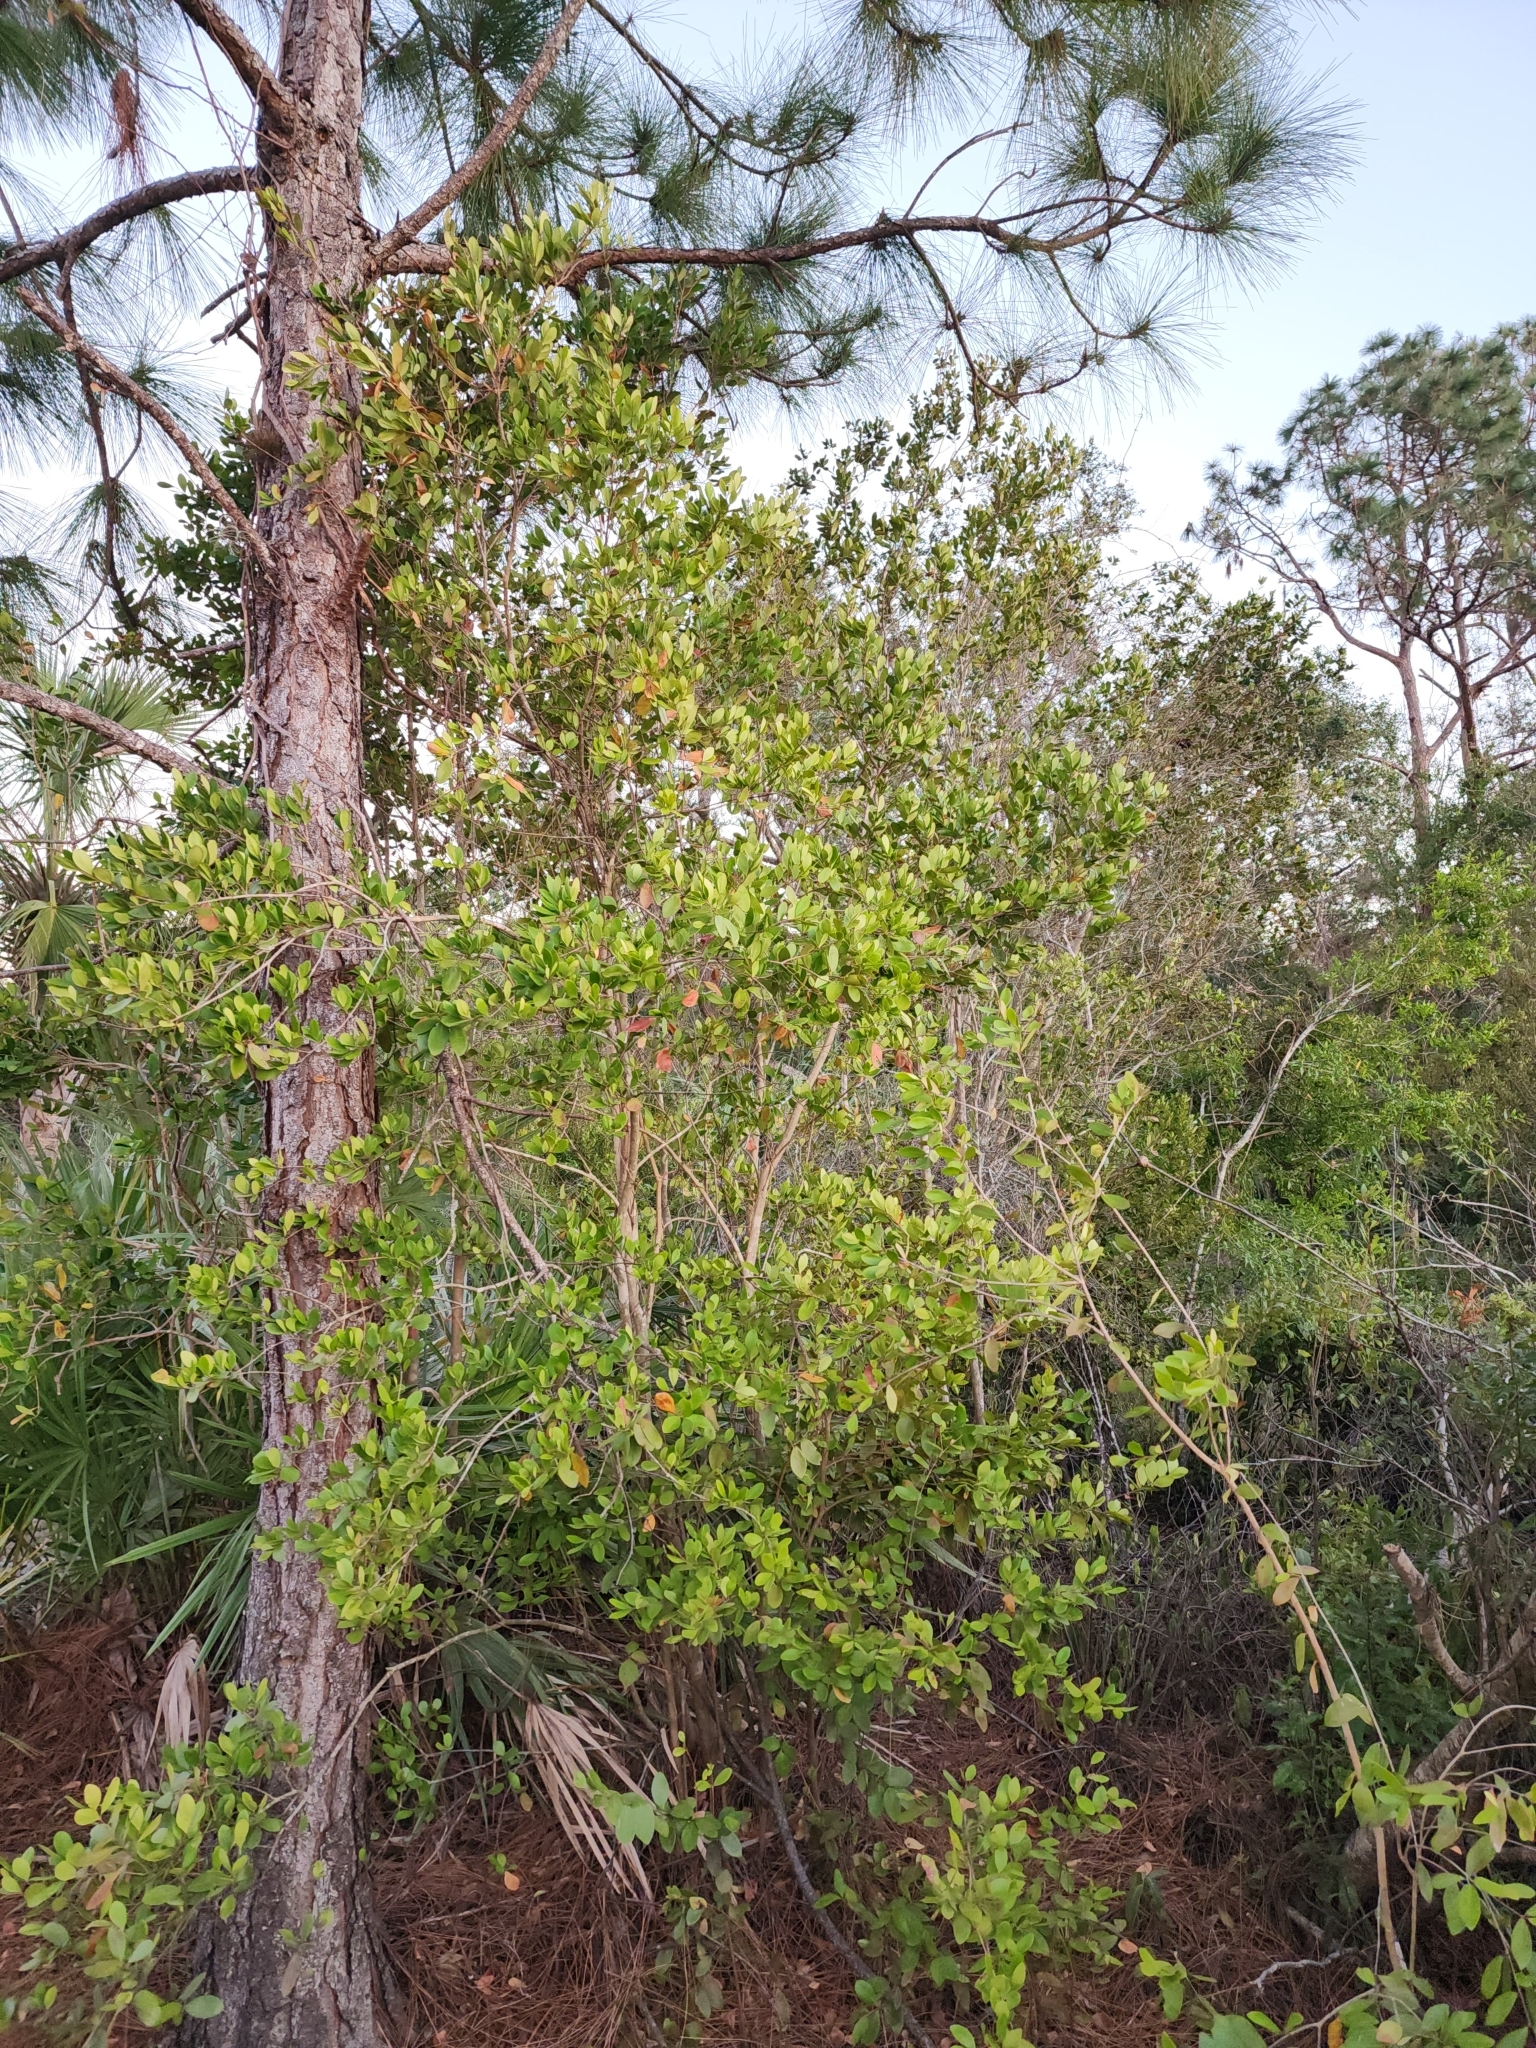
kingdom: Plantae
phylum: Tracheophyta
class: Magnoliopsida
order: Myrtales
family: Myrtaceae
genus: Eugenia
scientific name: Eugenia foetida
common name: White wattling
